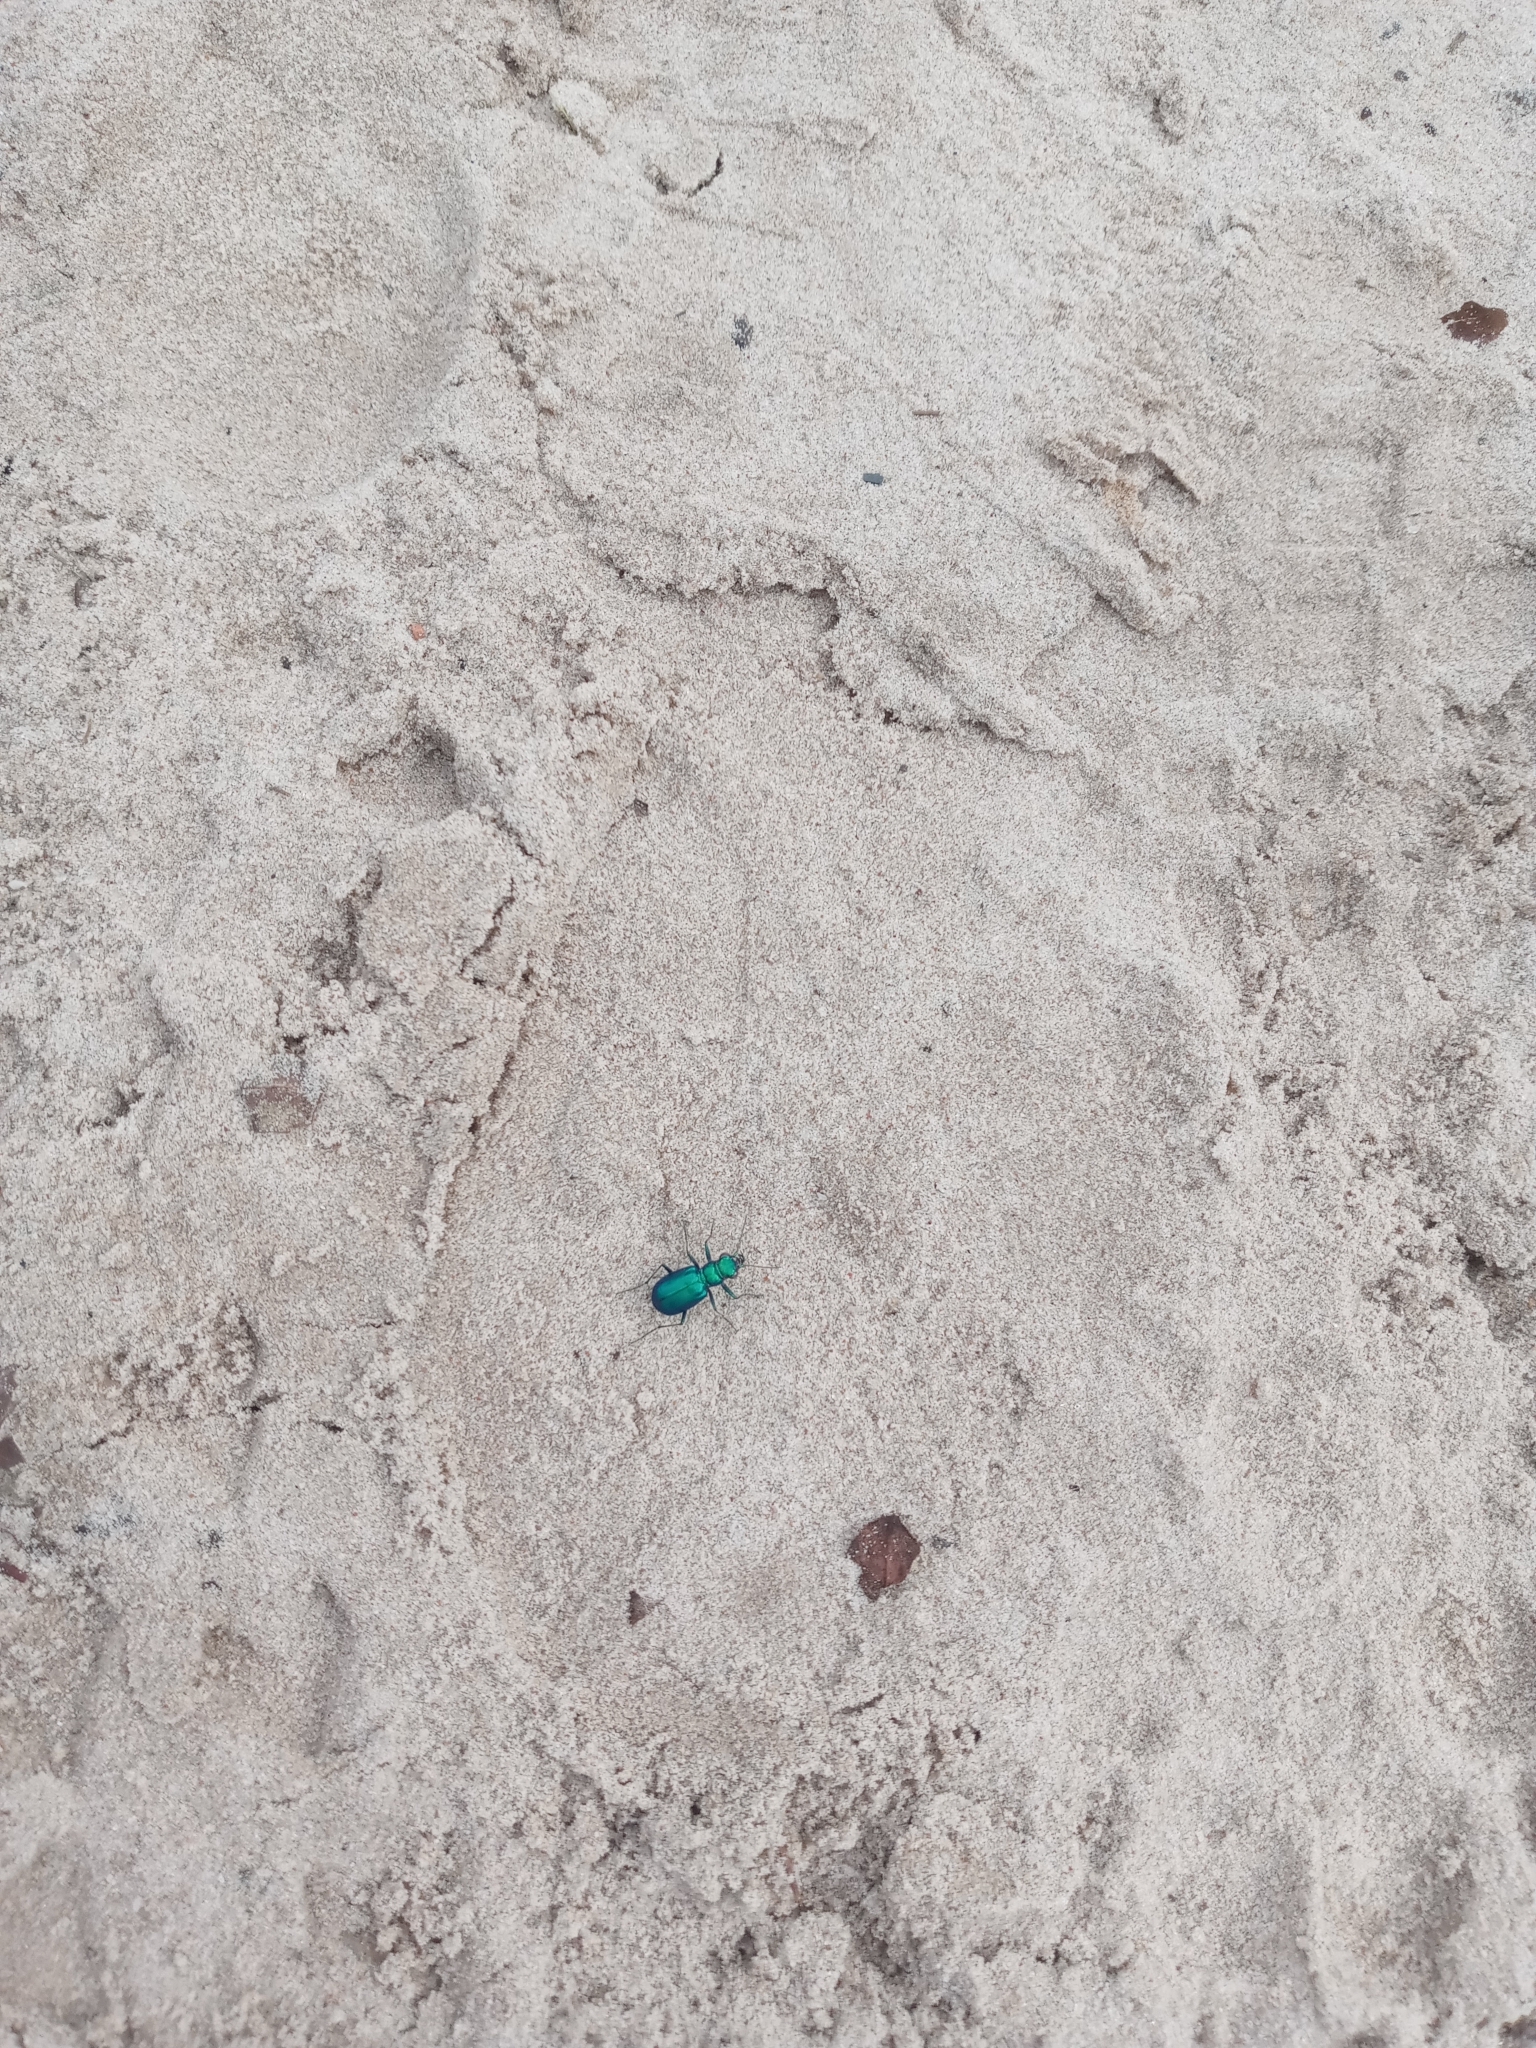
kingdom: Animalia
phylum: Arthropoda
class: Insecta
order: Coleoptera
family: Carabidae
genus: Cicindela
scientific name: Cicindela scutellaris
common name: Festive tiger beetle
